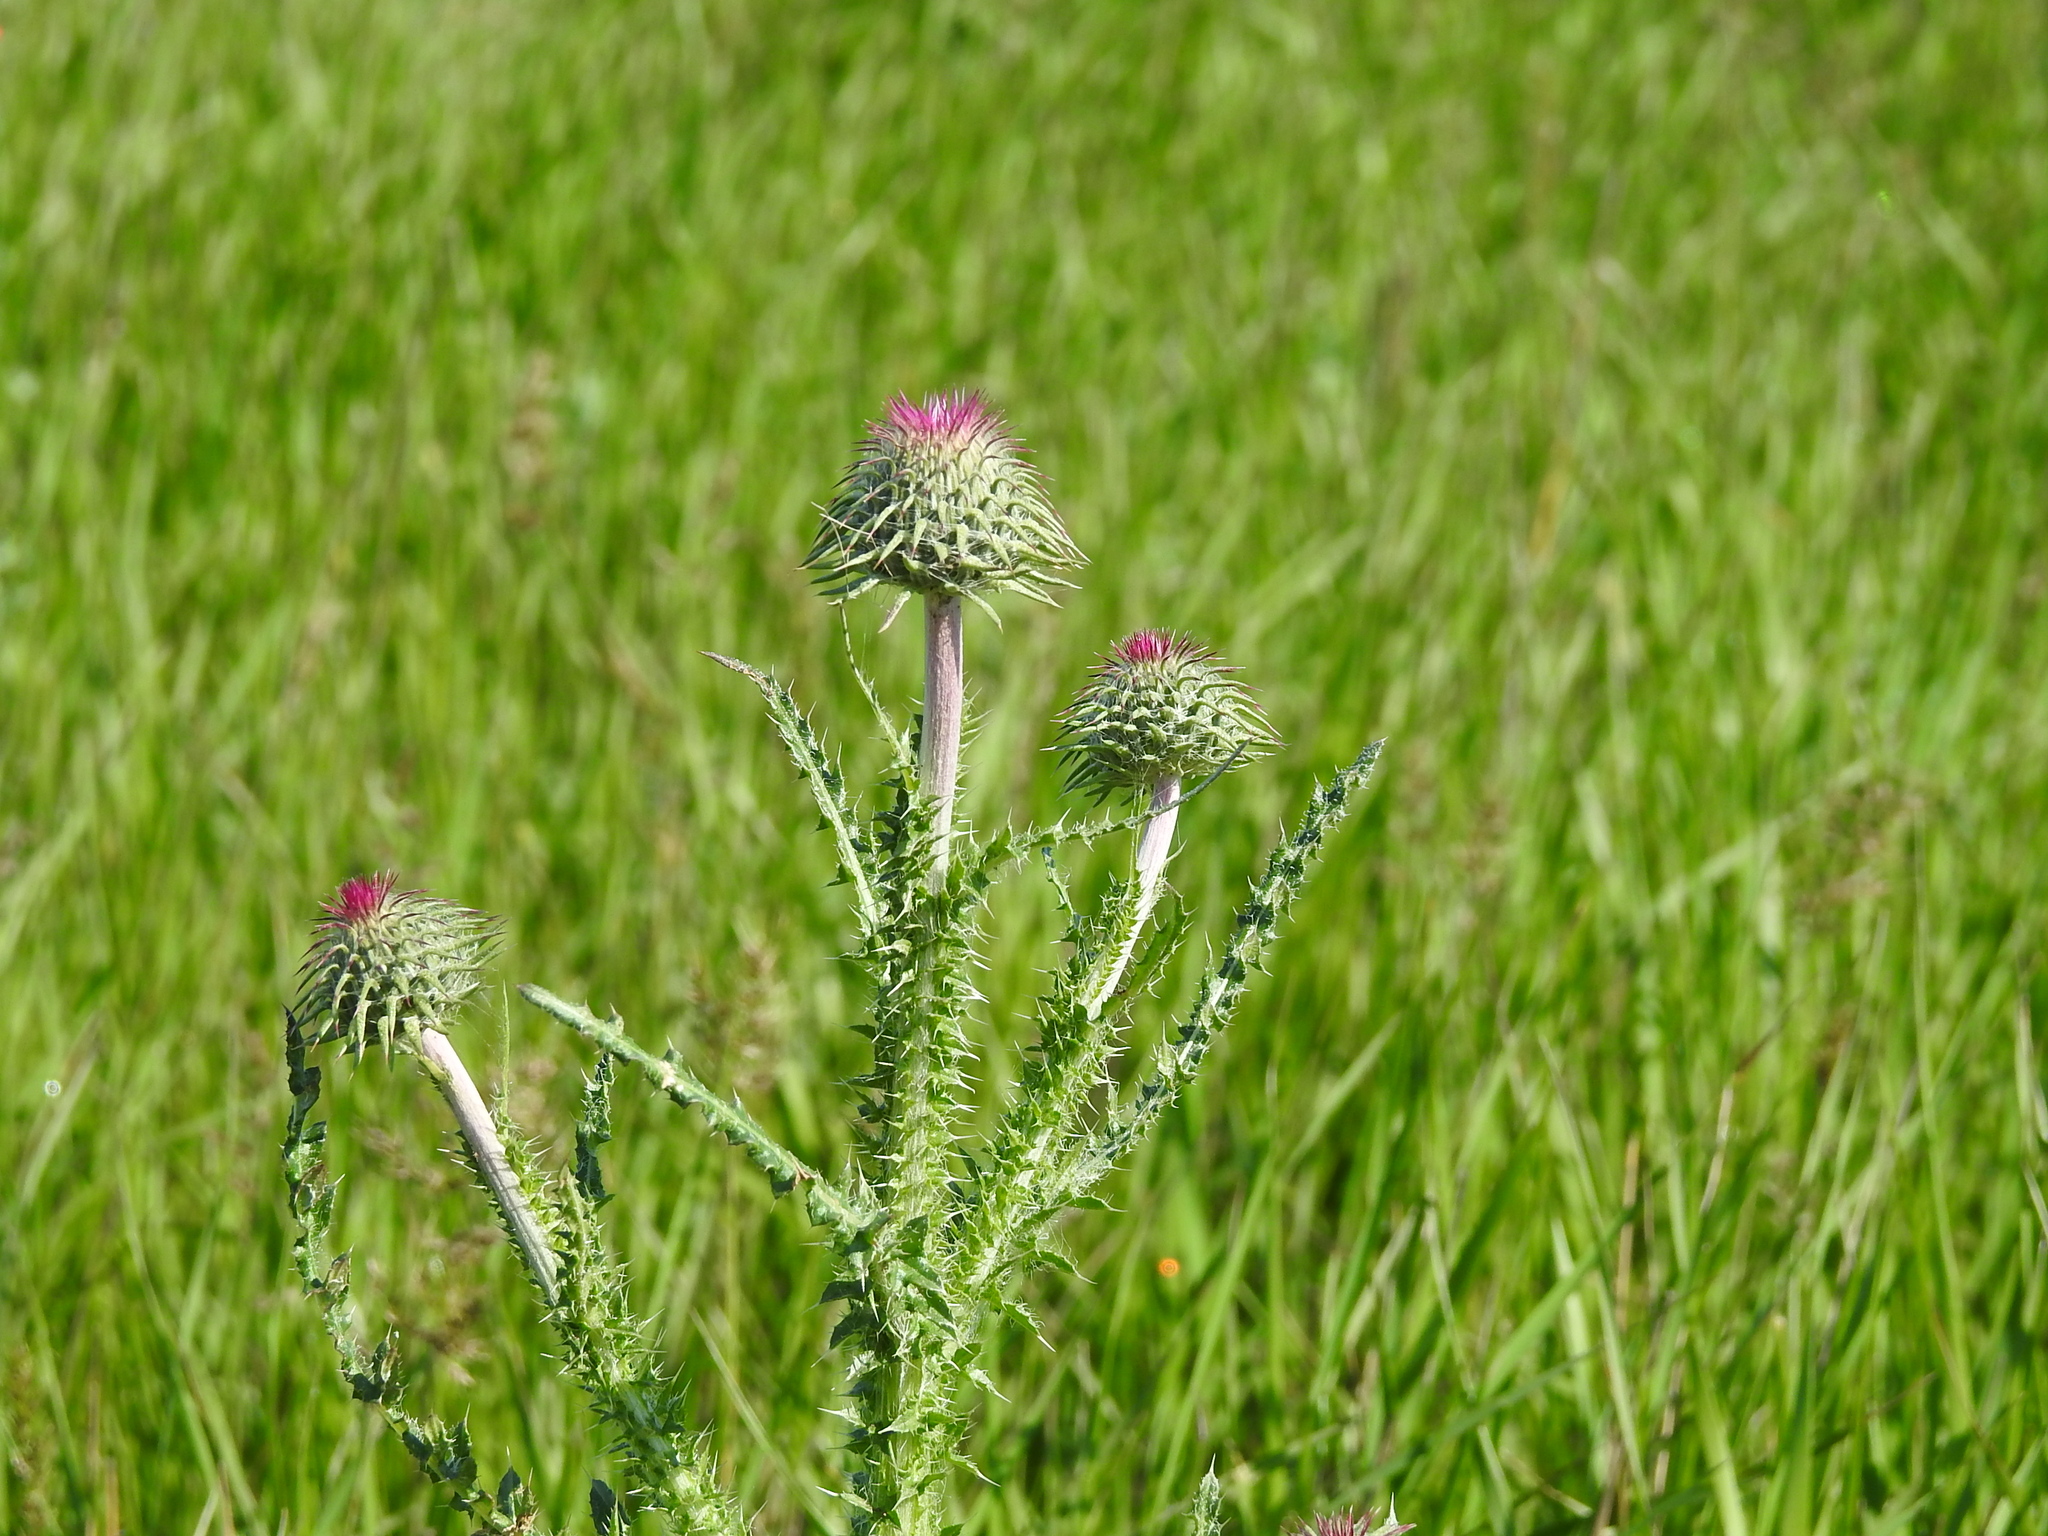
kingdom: Plantae
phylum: Tracheophyta
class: Magnoliopsida
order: Asterales
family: Asteraceae
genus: Carduus
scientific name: Carduus uncinatus
